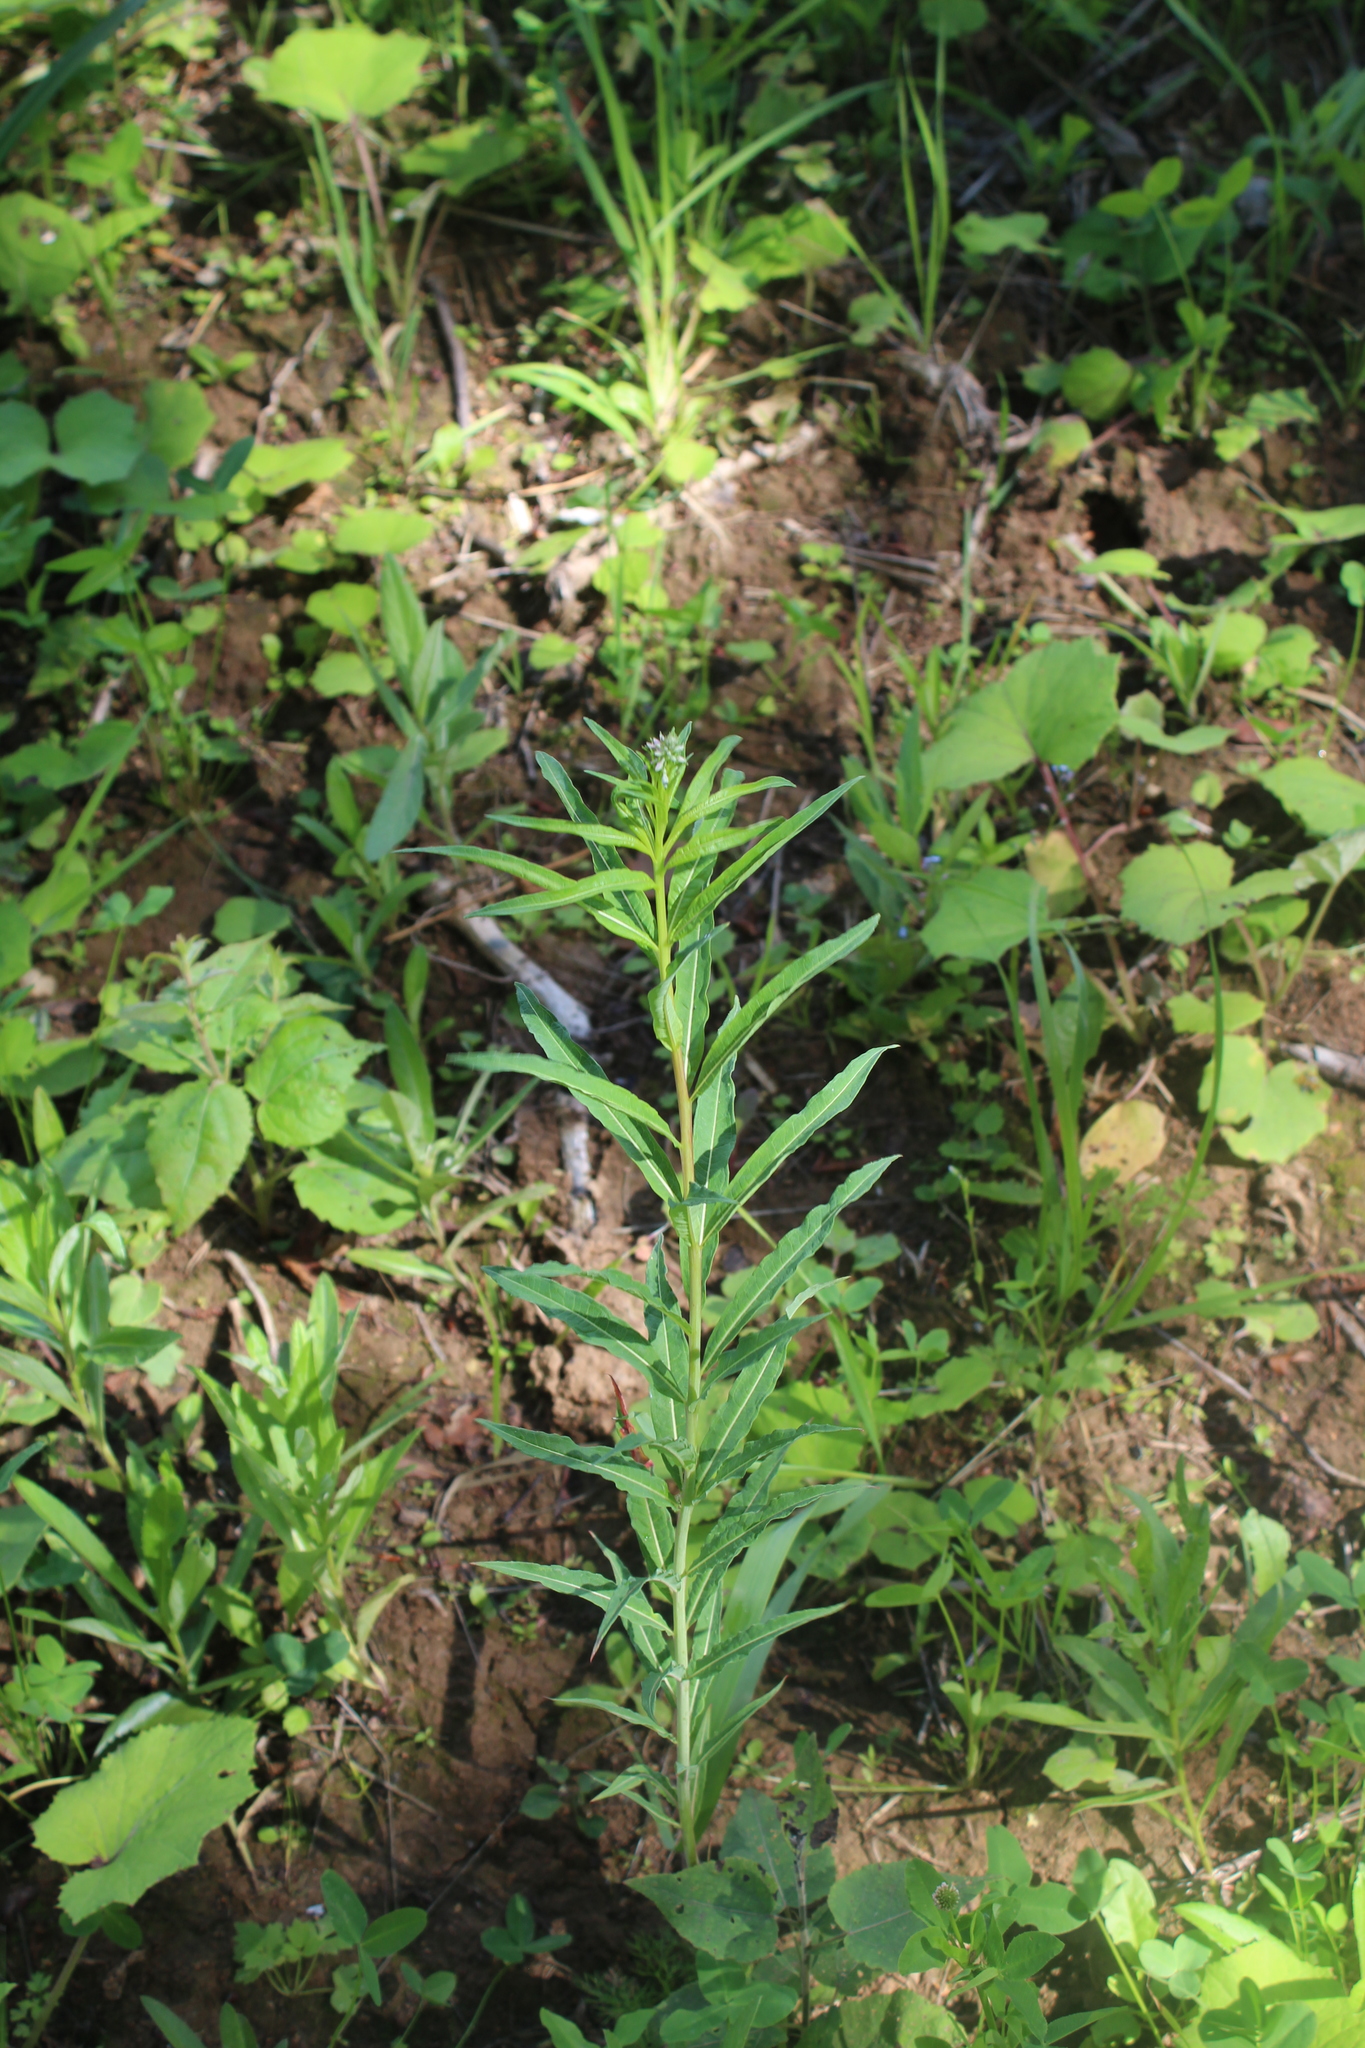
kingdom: Plantae
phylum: Tracheophyta
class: Magnoliopsida
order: Myrtales
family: Onagraceae
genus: Chamaenerion
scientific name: Chamaenerion angustifolium
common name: Fireweed
